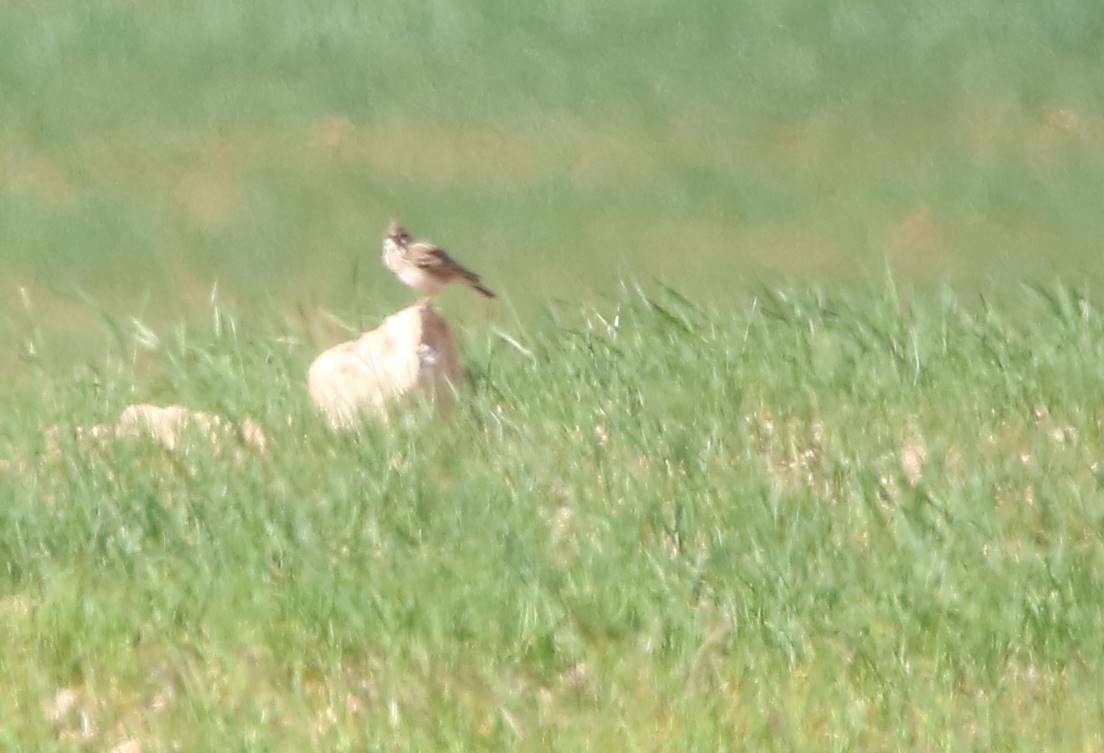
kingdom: Animalia
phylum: Chordata
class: Aves
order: Passeriformes
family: Alaudidae
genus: Galerida
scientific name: Galerida cristata
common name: Crested lark
